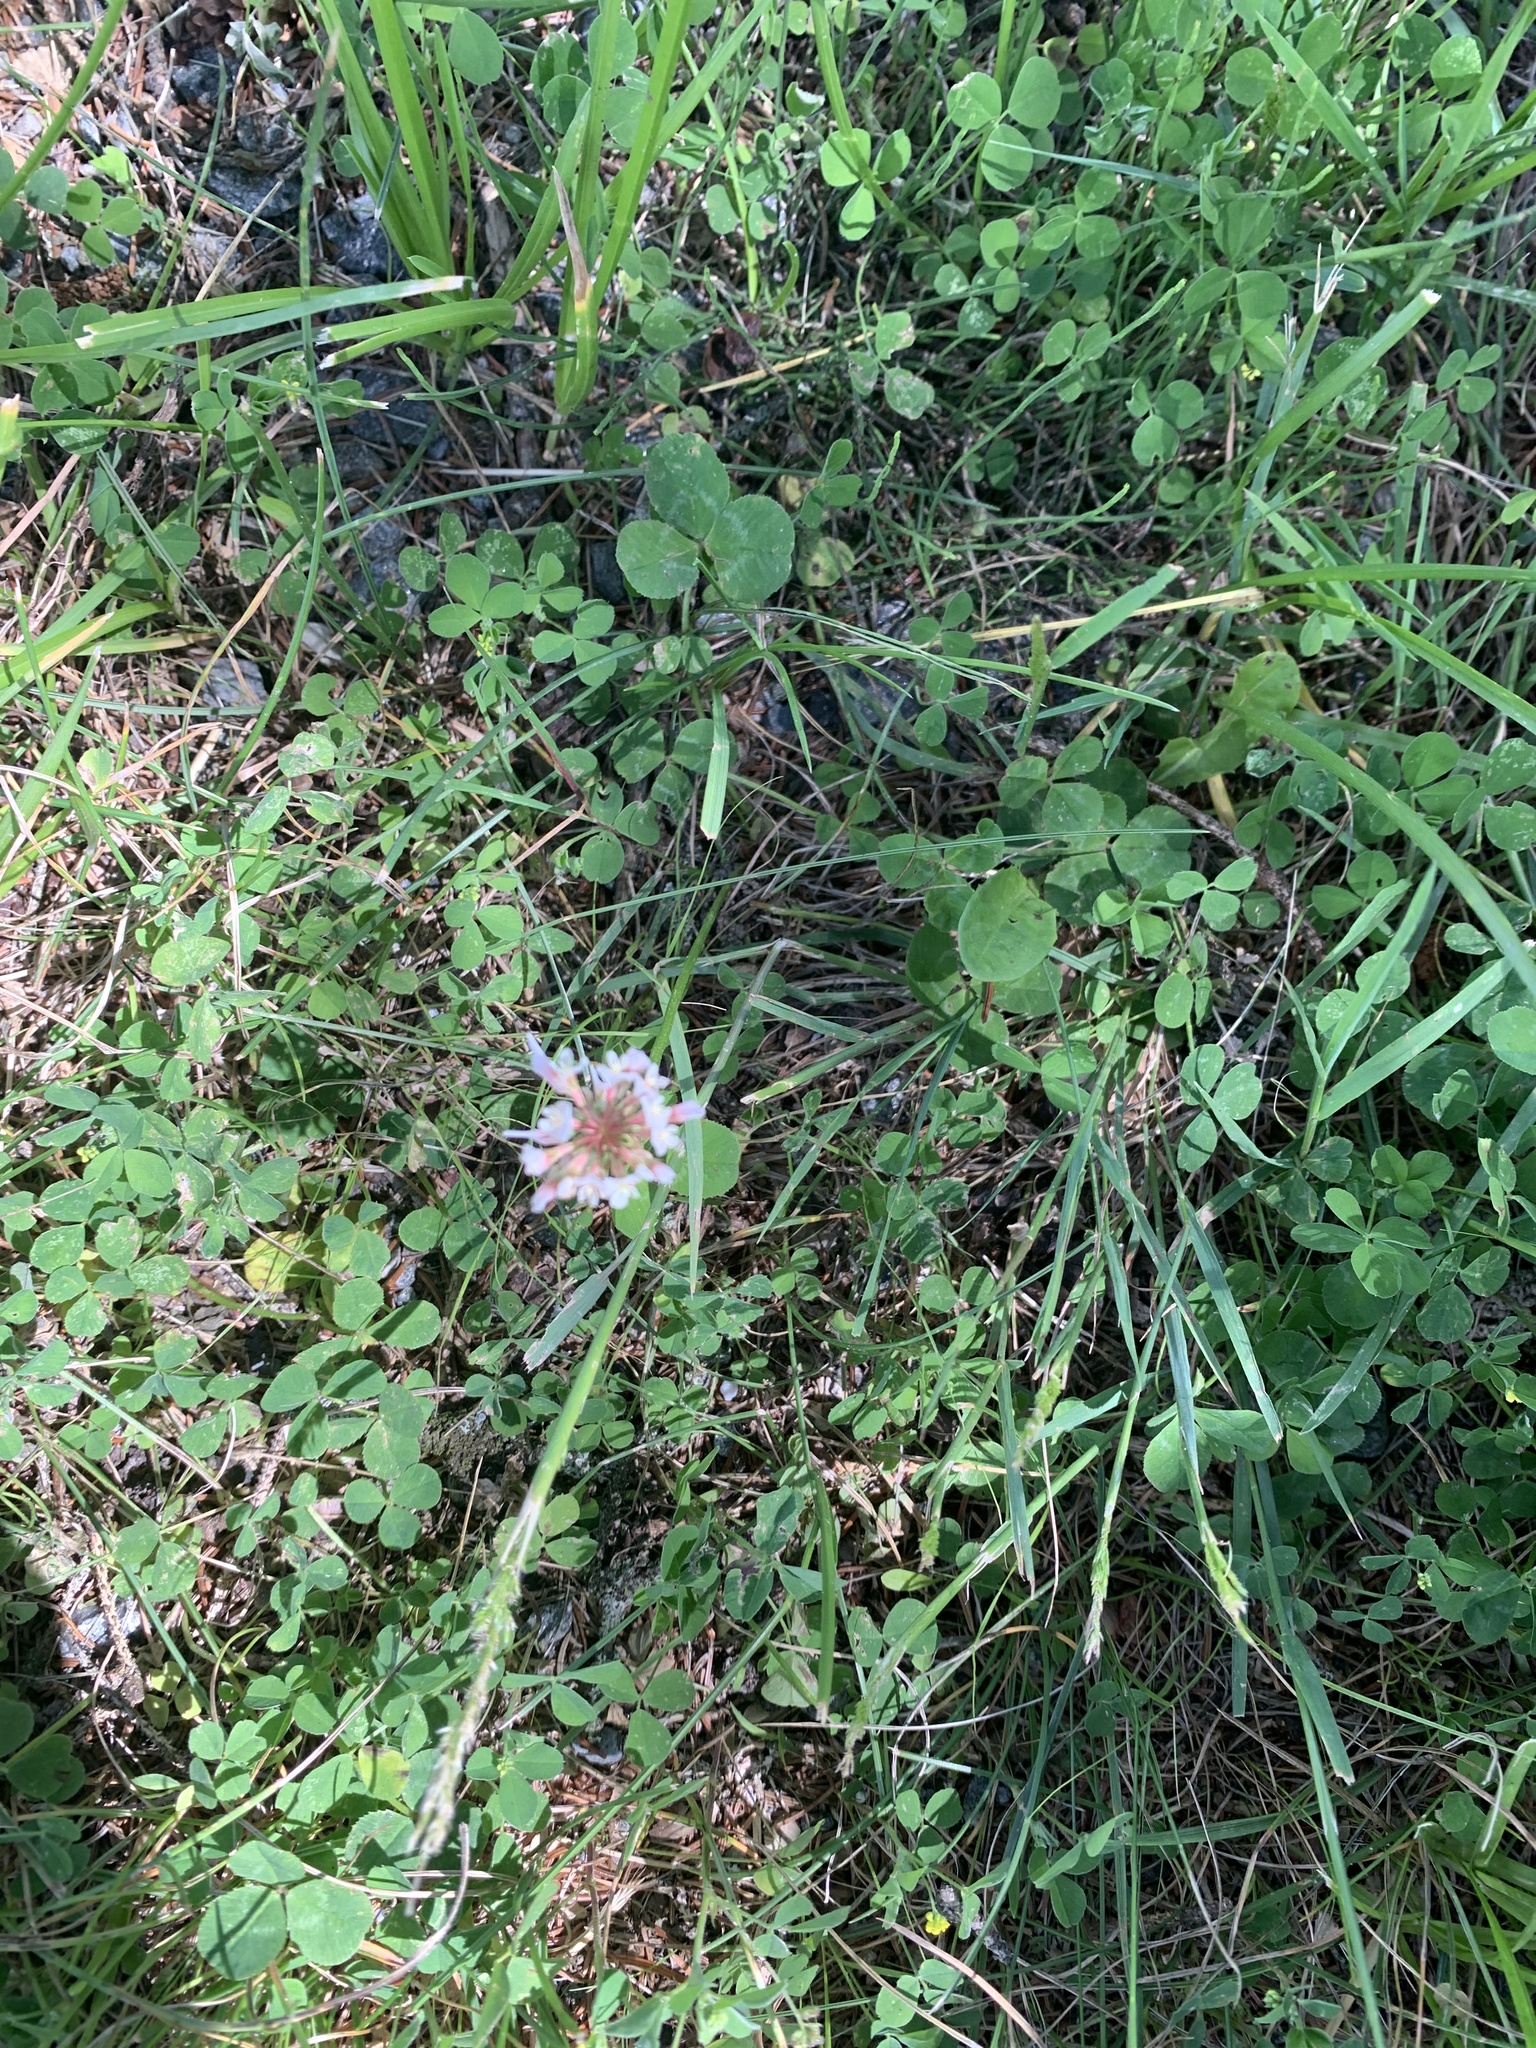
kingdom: Plantae
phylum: Tracheophyta
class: Magnoliopsida
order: Fabales
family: Fabaceae
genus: Trifolium
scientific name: Trifolium repens
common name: White clover
